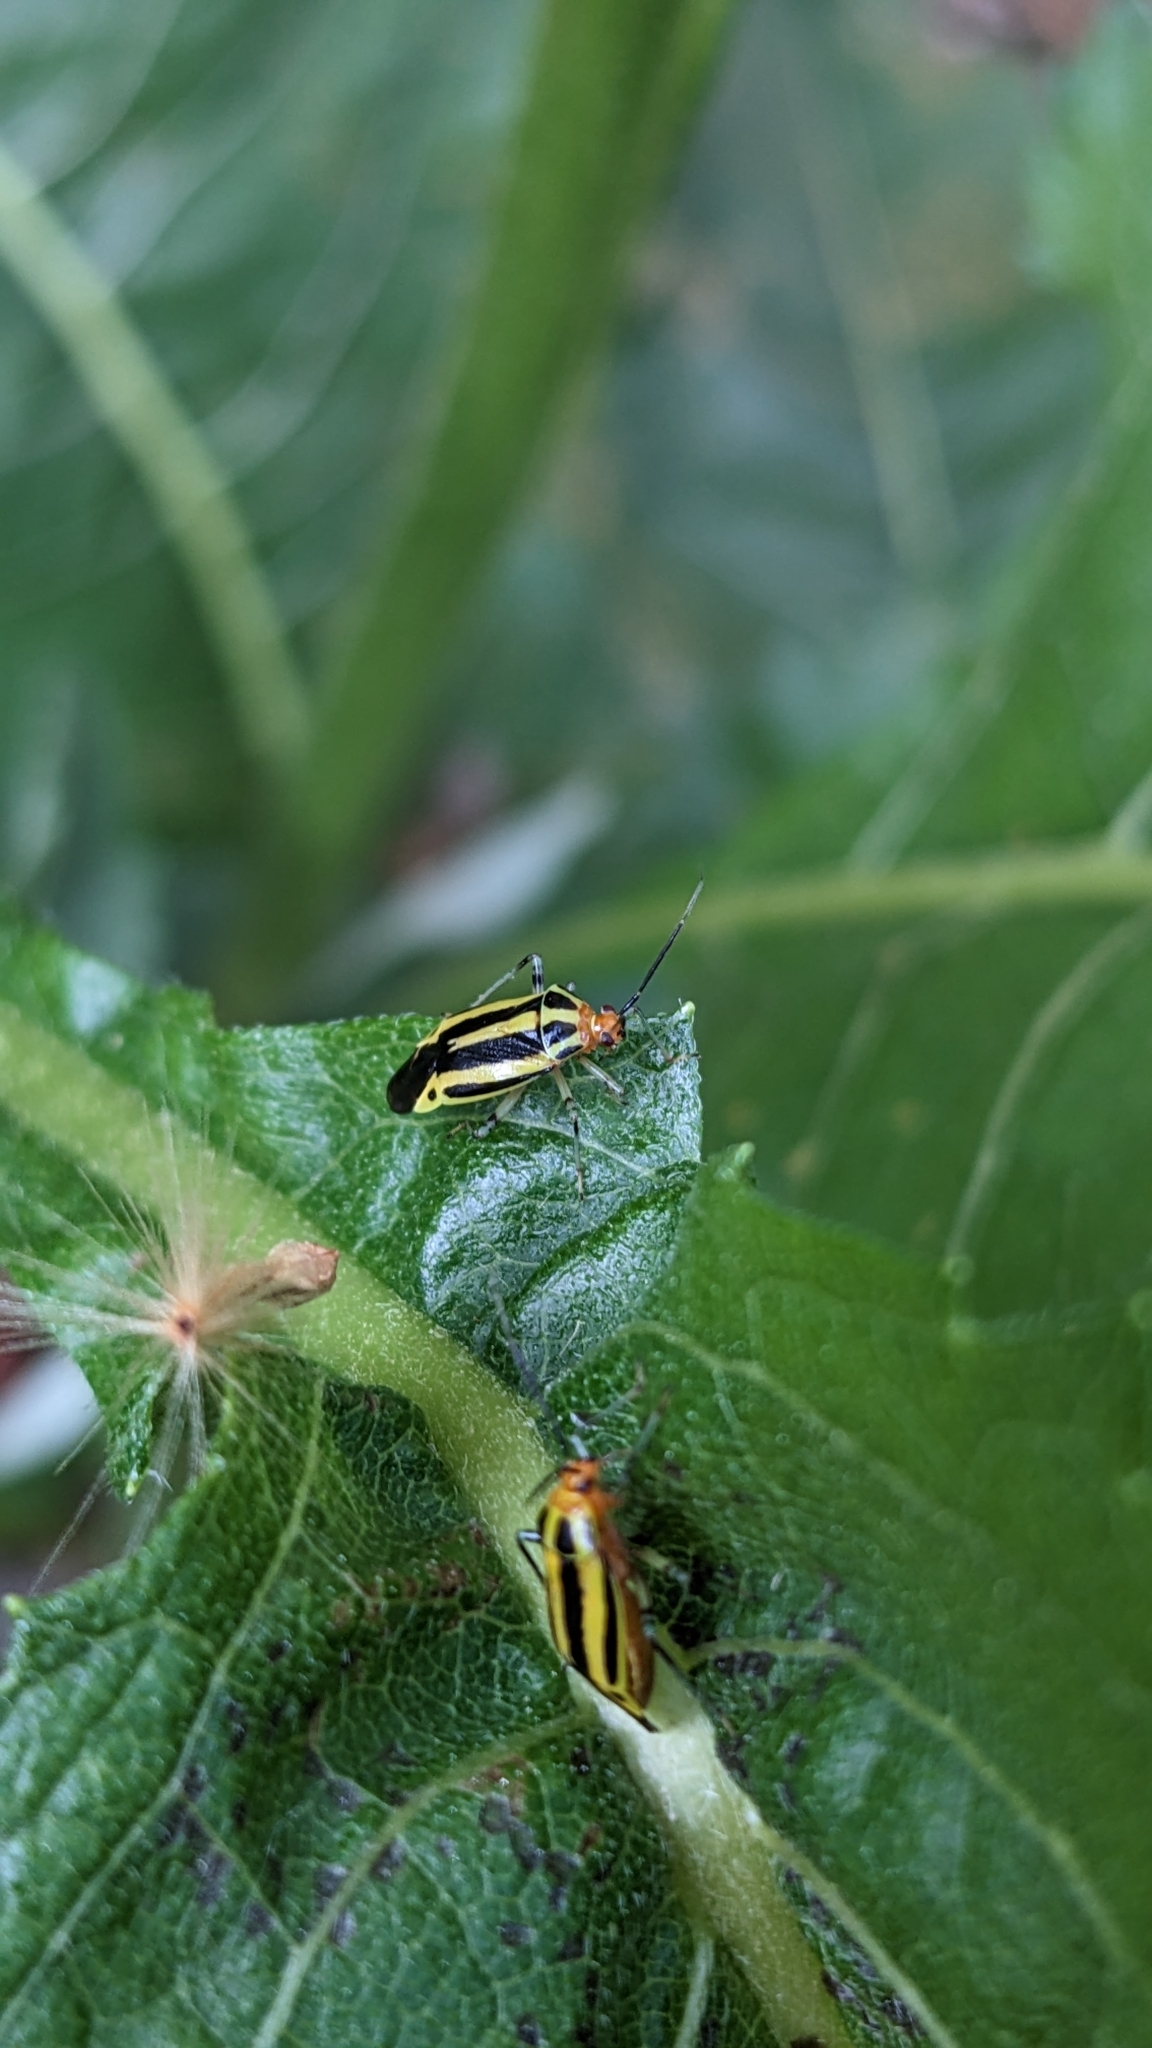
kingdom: Animalia
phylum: Arthropoda
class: Insecta
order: Hemiptera
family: Miridae
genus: Poecilocapsus
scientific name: Poecilocapsus lineatus
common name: Four-lined plant bug
